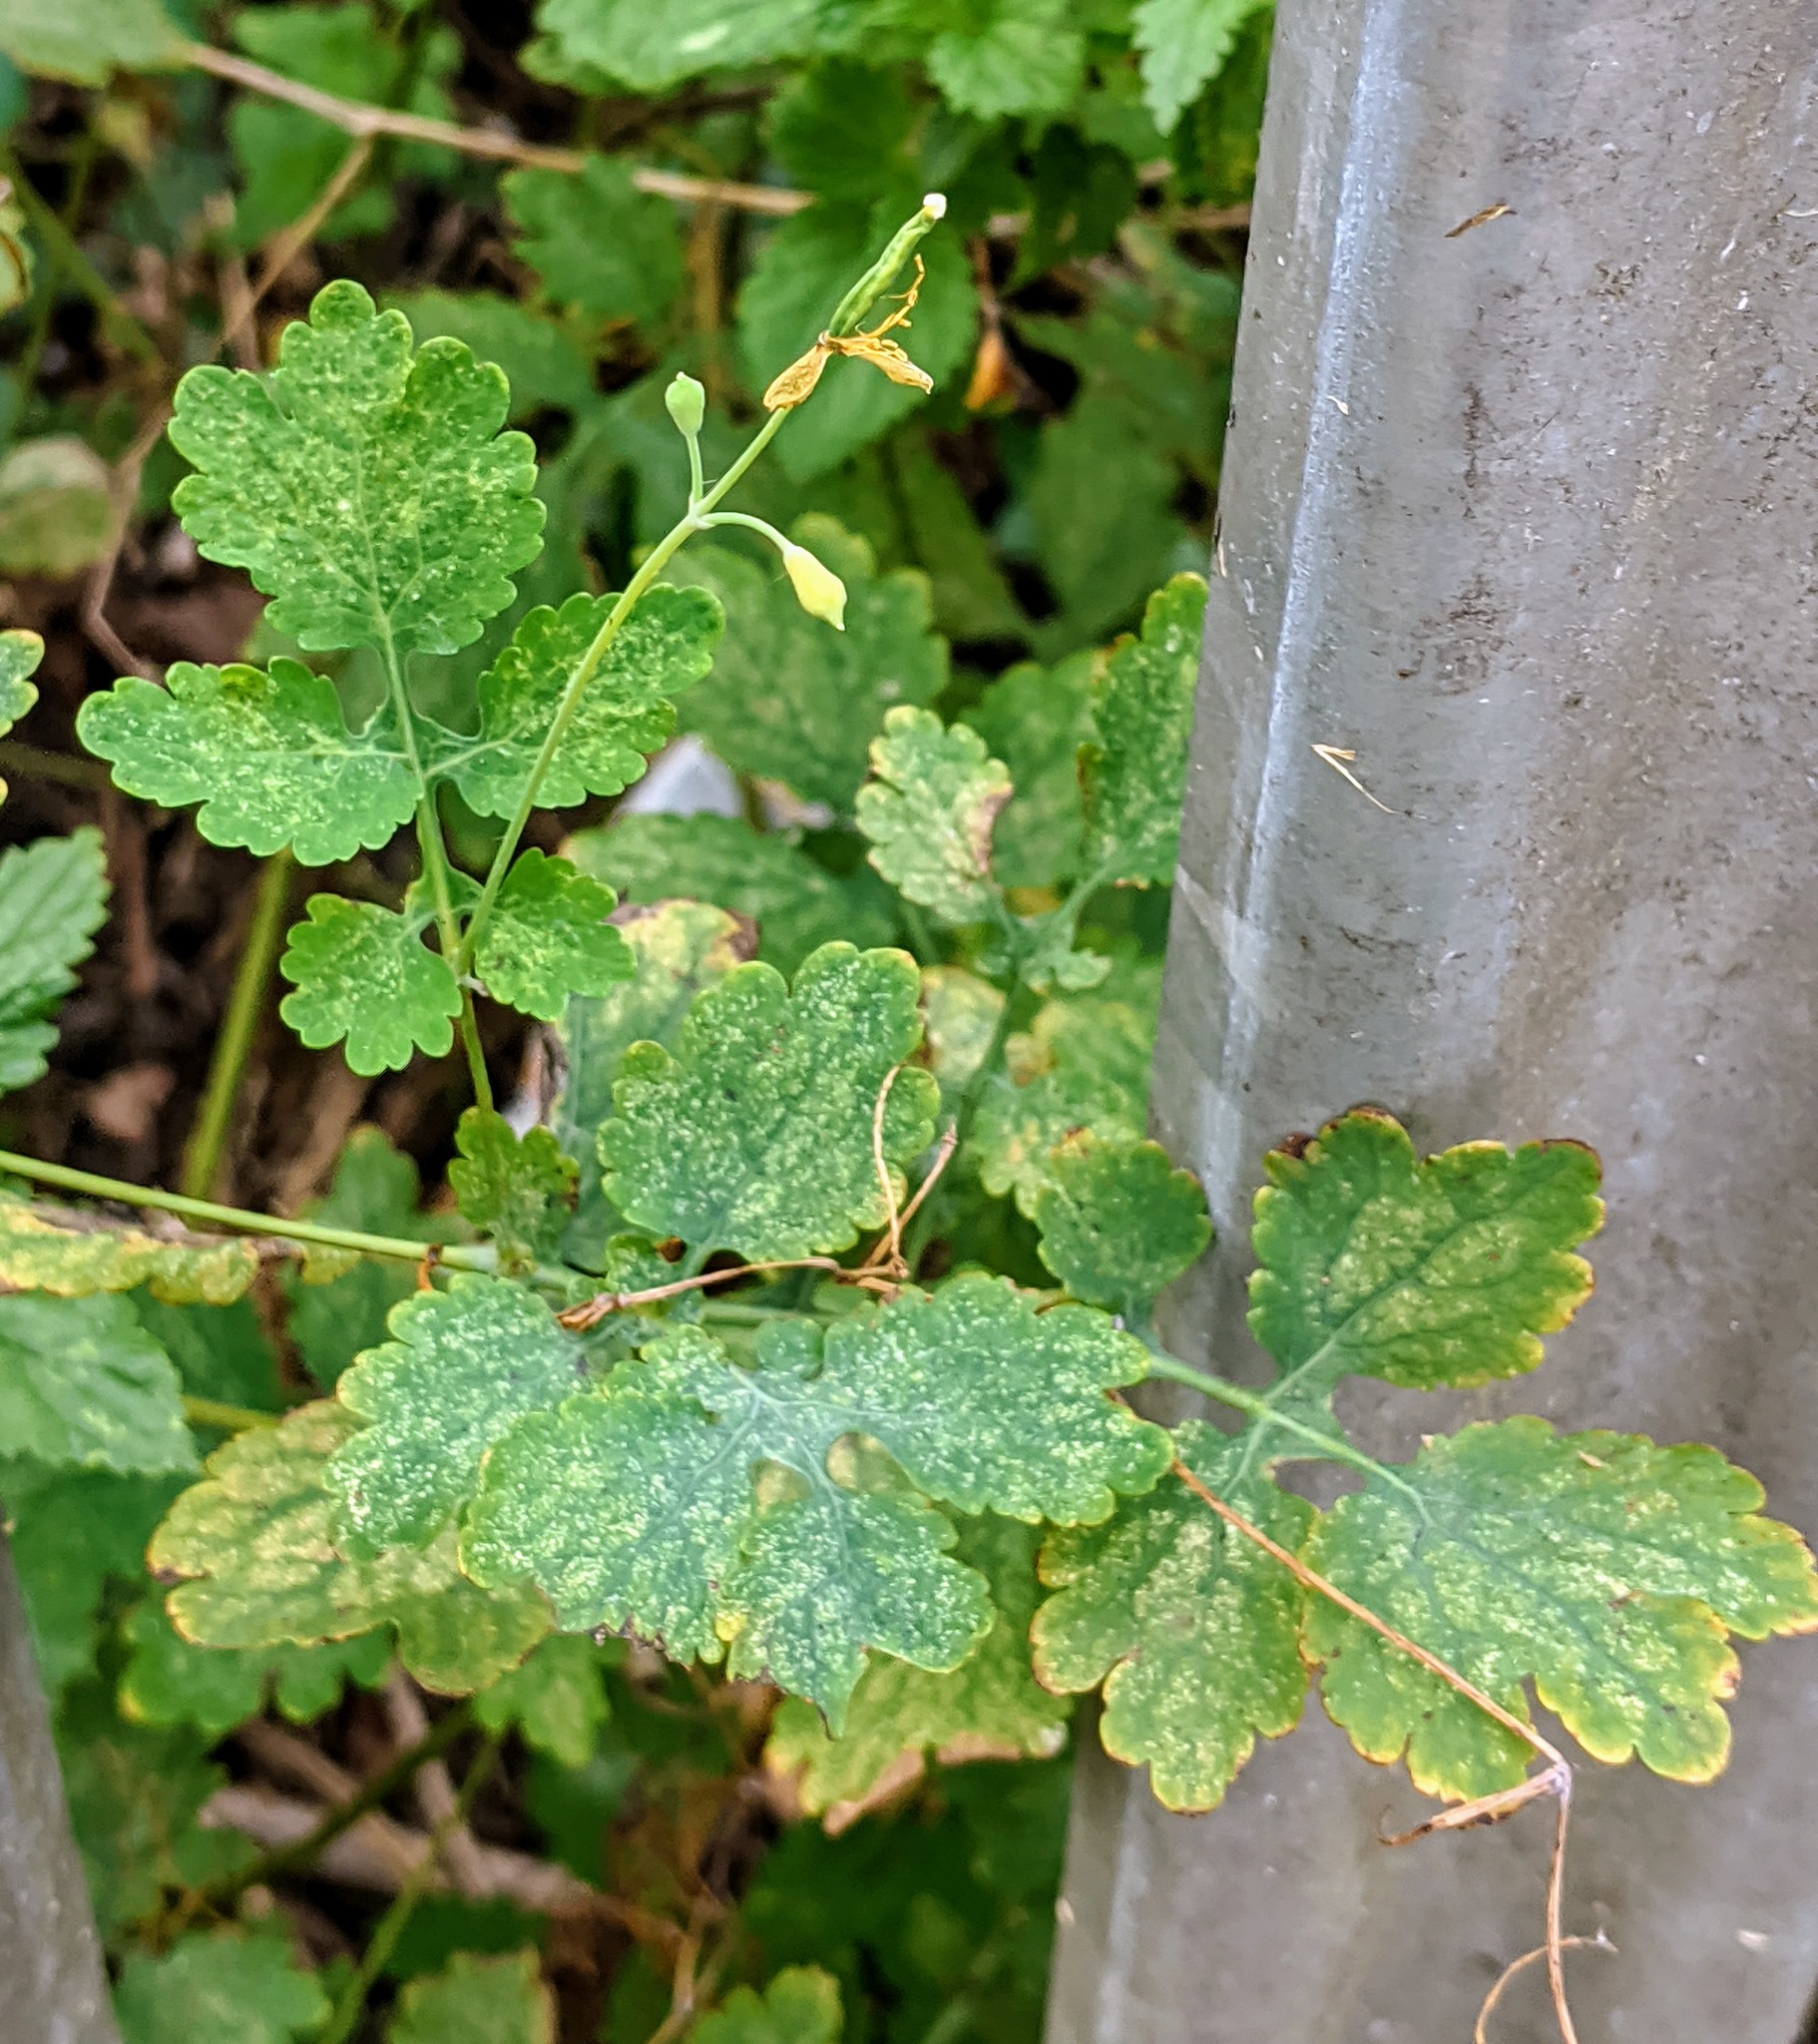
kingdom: Plantae
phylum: Tracheophyta
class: Magnoliopsida
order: Ranunculales
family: Papaveraceae
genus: Chelidonium
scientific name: Chelidonium majus
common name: Greater celandine
